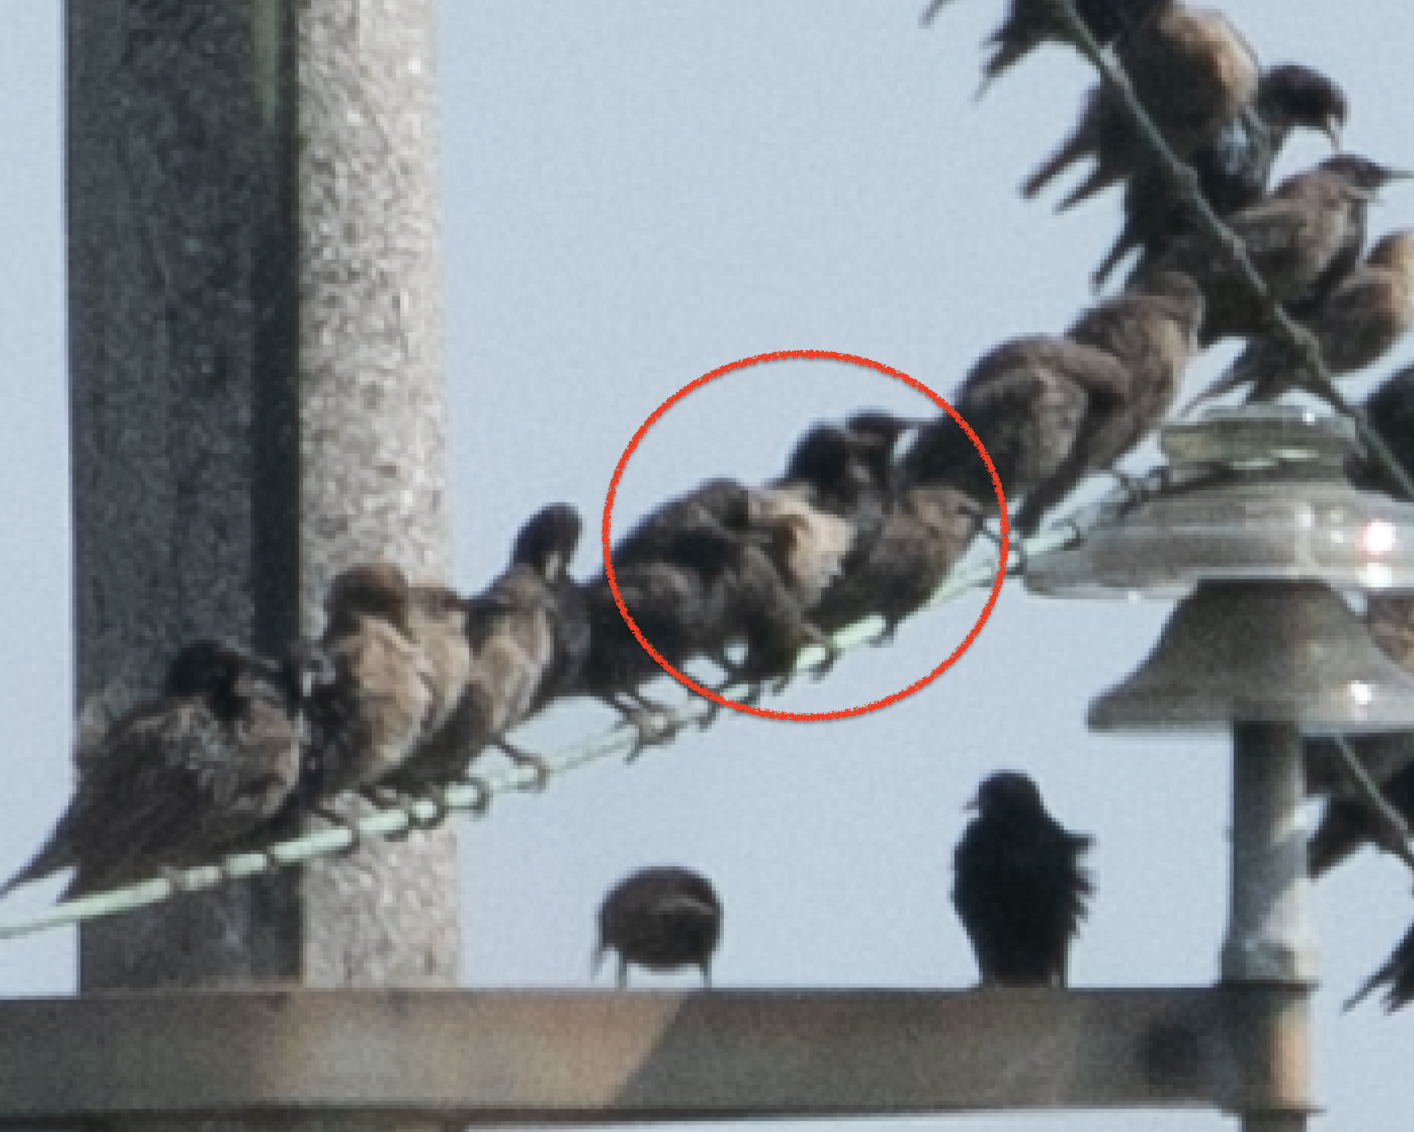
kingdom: Animalia
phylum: Chordata
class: Aves
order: Passeriformes
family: Sturnidae
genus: Pastor
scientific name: Pastor roseus
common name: Rosy starling
